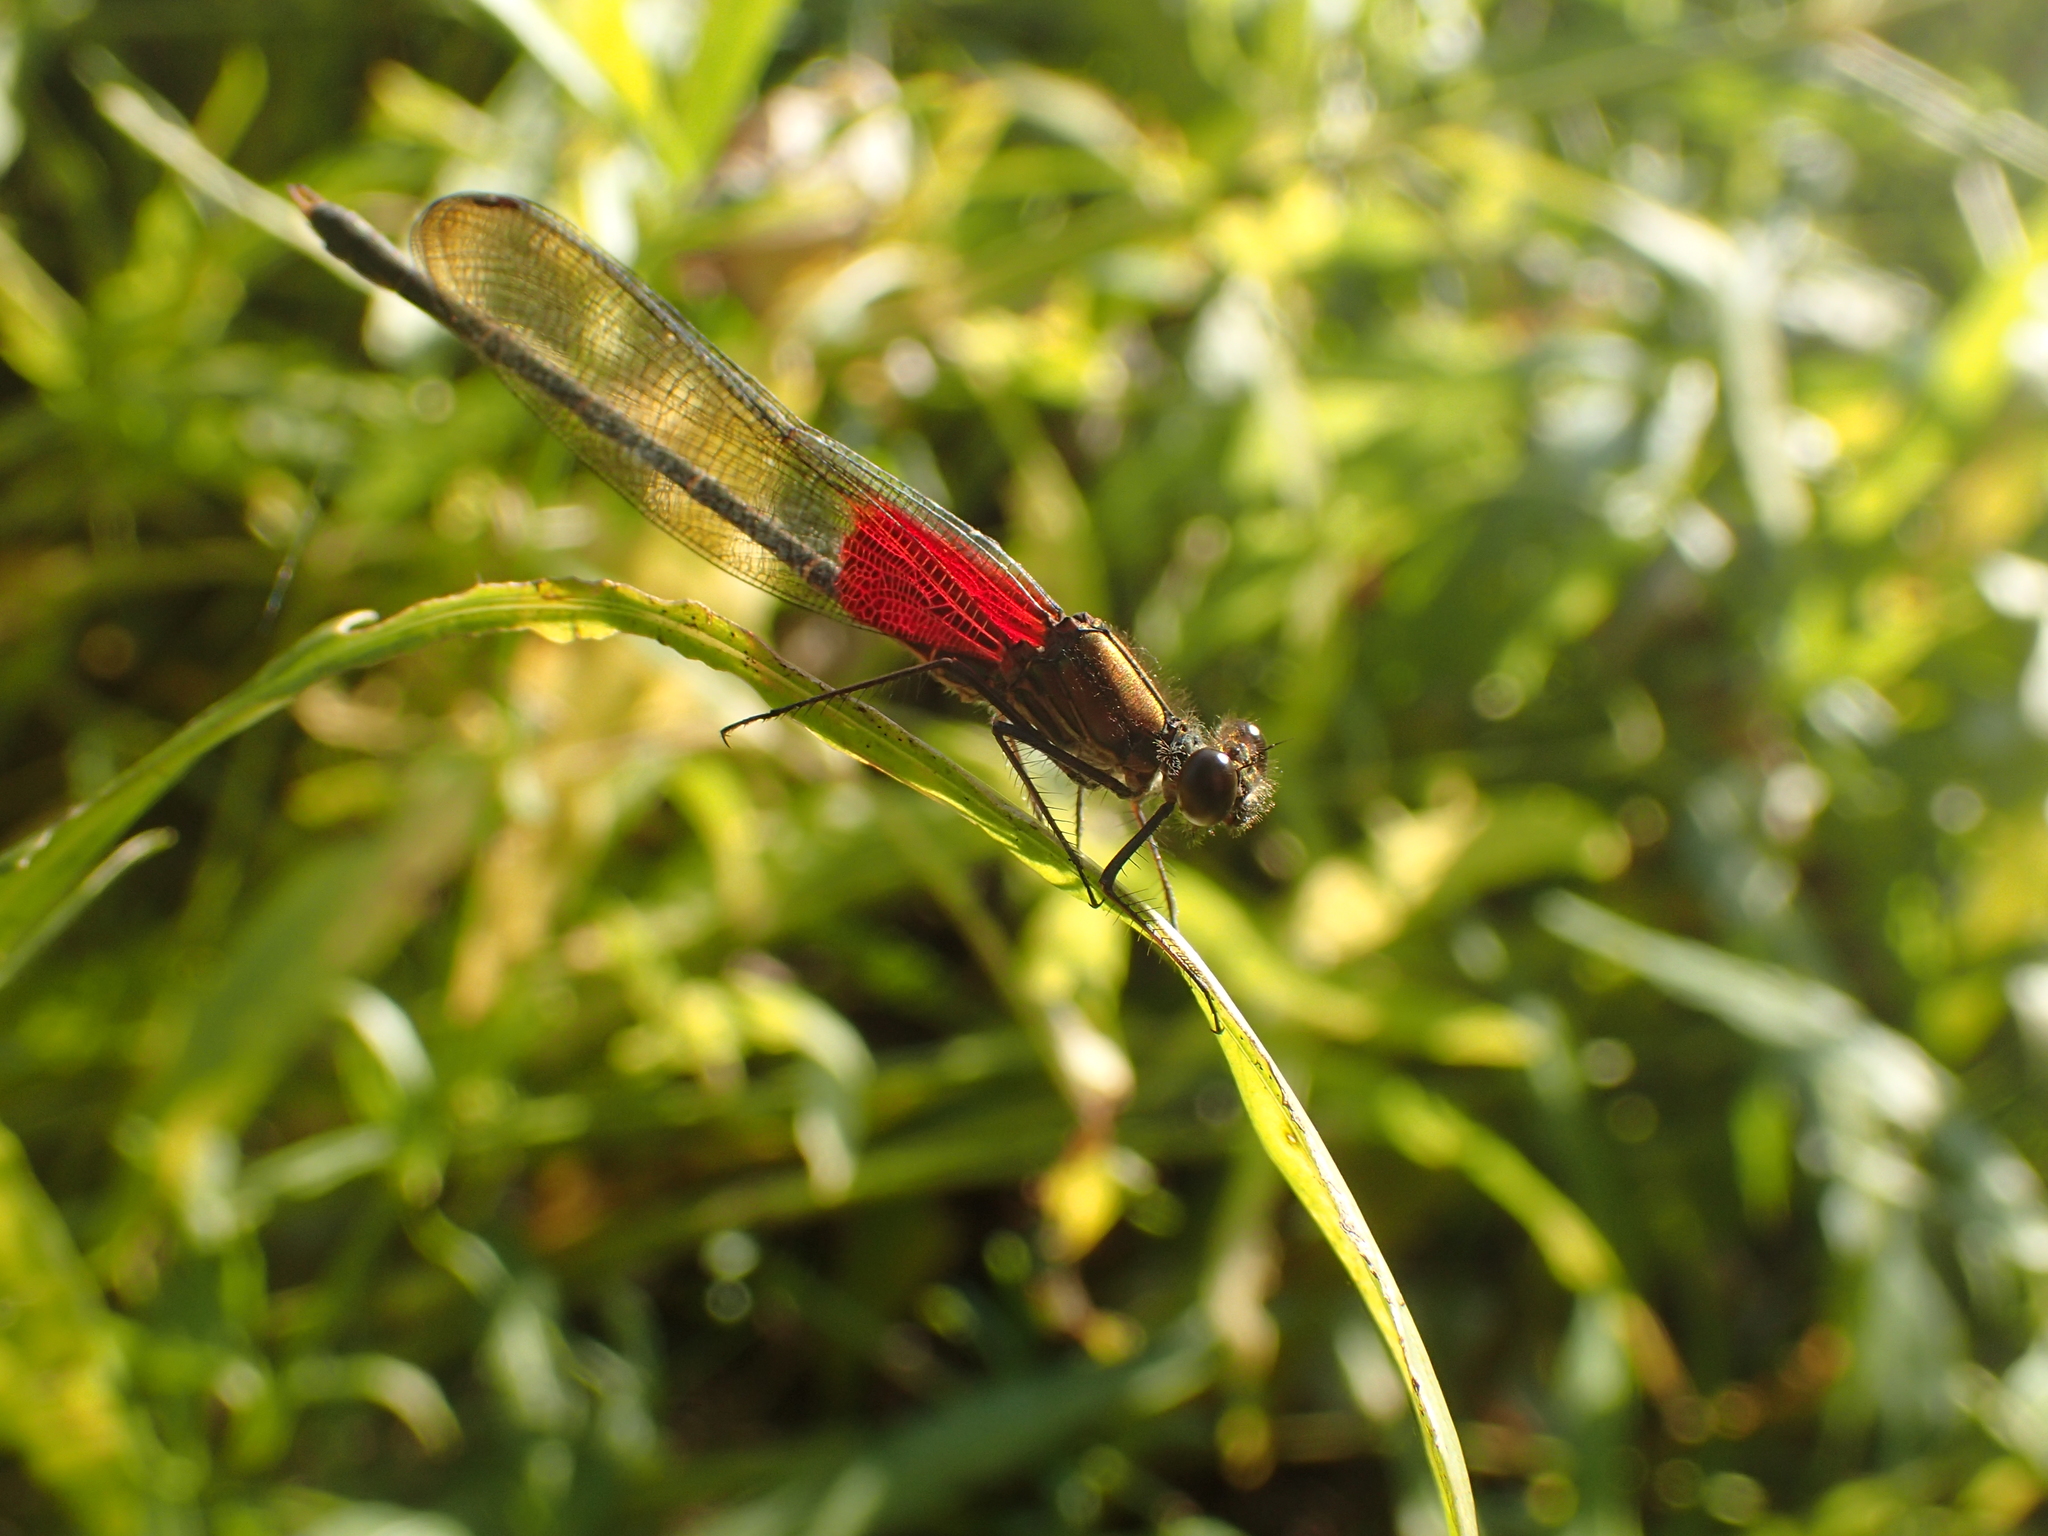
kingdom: Animalia
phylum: Arthropoda
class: Insecta
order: Odonata
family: Calopterygidae
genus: Hetaerina
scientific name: Hetaerina americana
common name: American rubyspot
